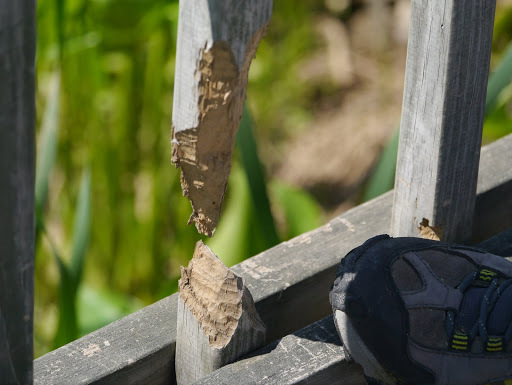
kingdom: Animalia
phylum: Chordata
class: Mammalia
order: Rodentia
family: Castoridae
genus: Castor
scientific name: Castor canadensis
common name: American beaver
